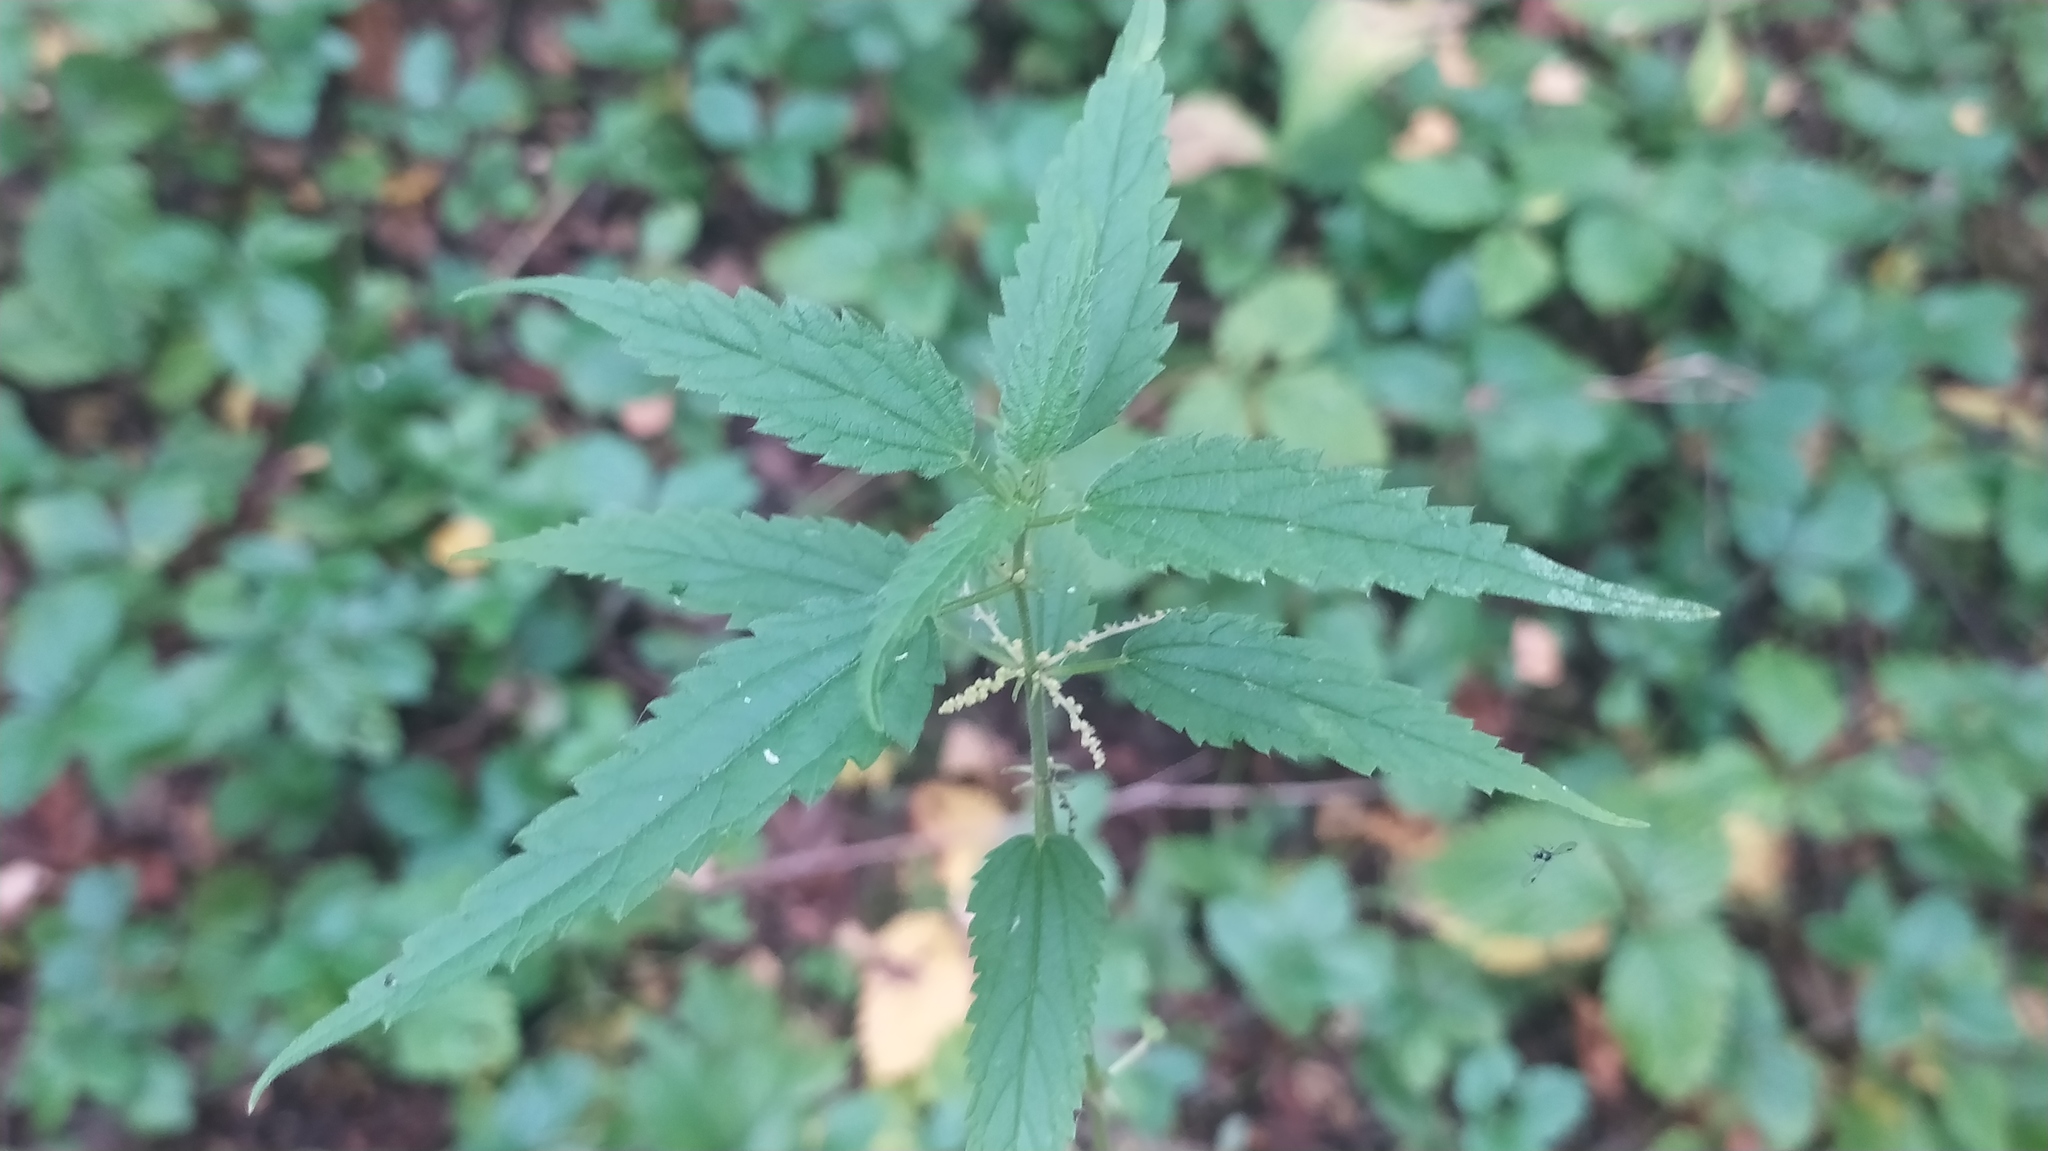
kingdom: Plantae
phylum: Tracheophyta
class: Magnoliopsida
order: Rosales
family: Urticaceae
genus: Urtica
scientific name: Urtica dioica
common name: Common nettle
